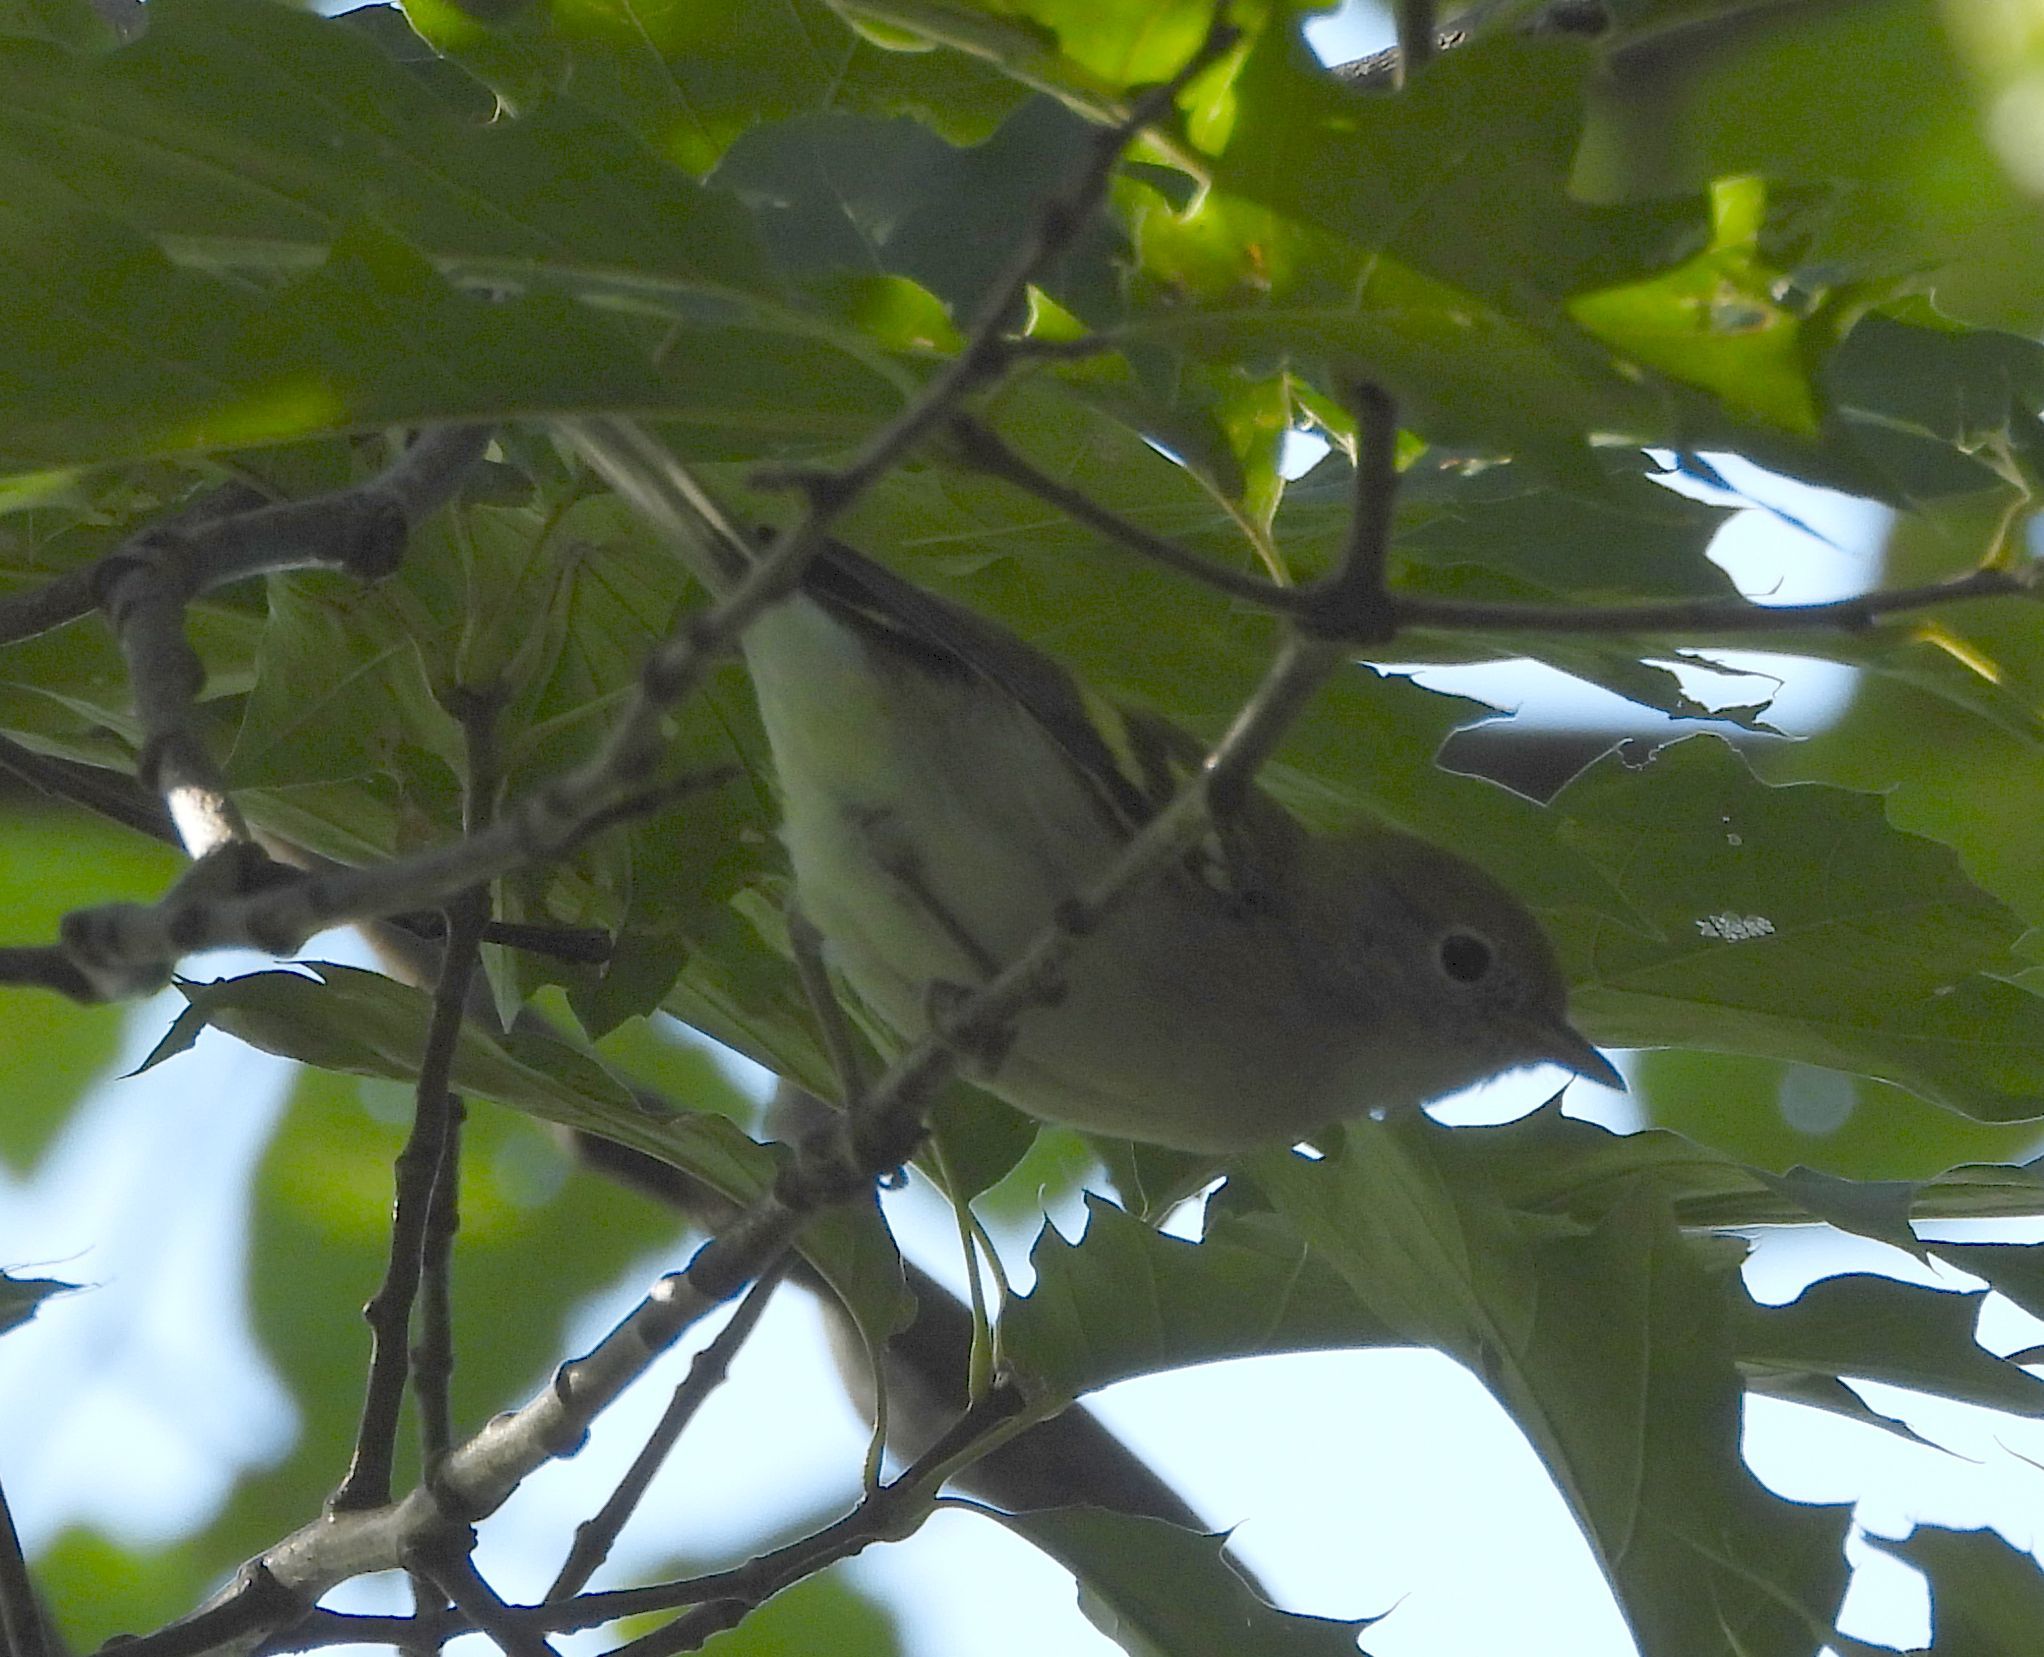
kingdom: Animalia
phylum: Chordata
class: Aves
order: Passeriformes
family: Parulidae
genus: Setophaga
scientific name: Setophaga pensylvanica
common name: Chestnut-sided warbler
